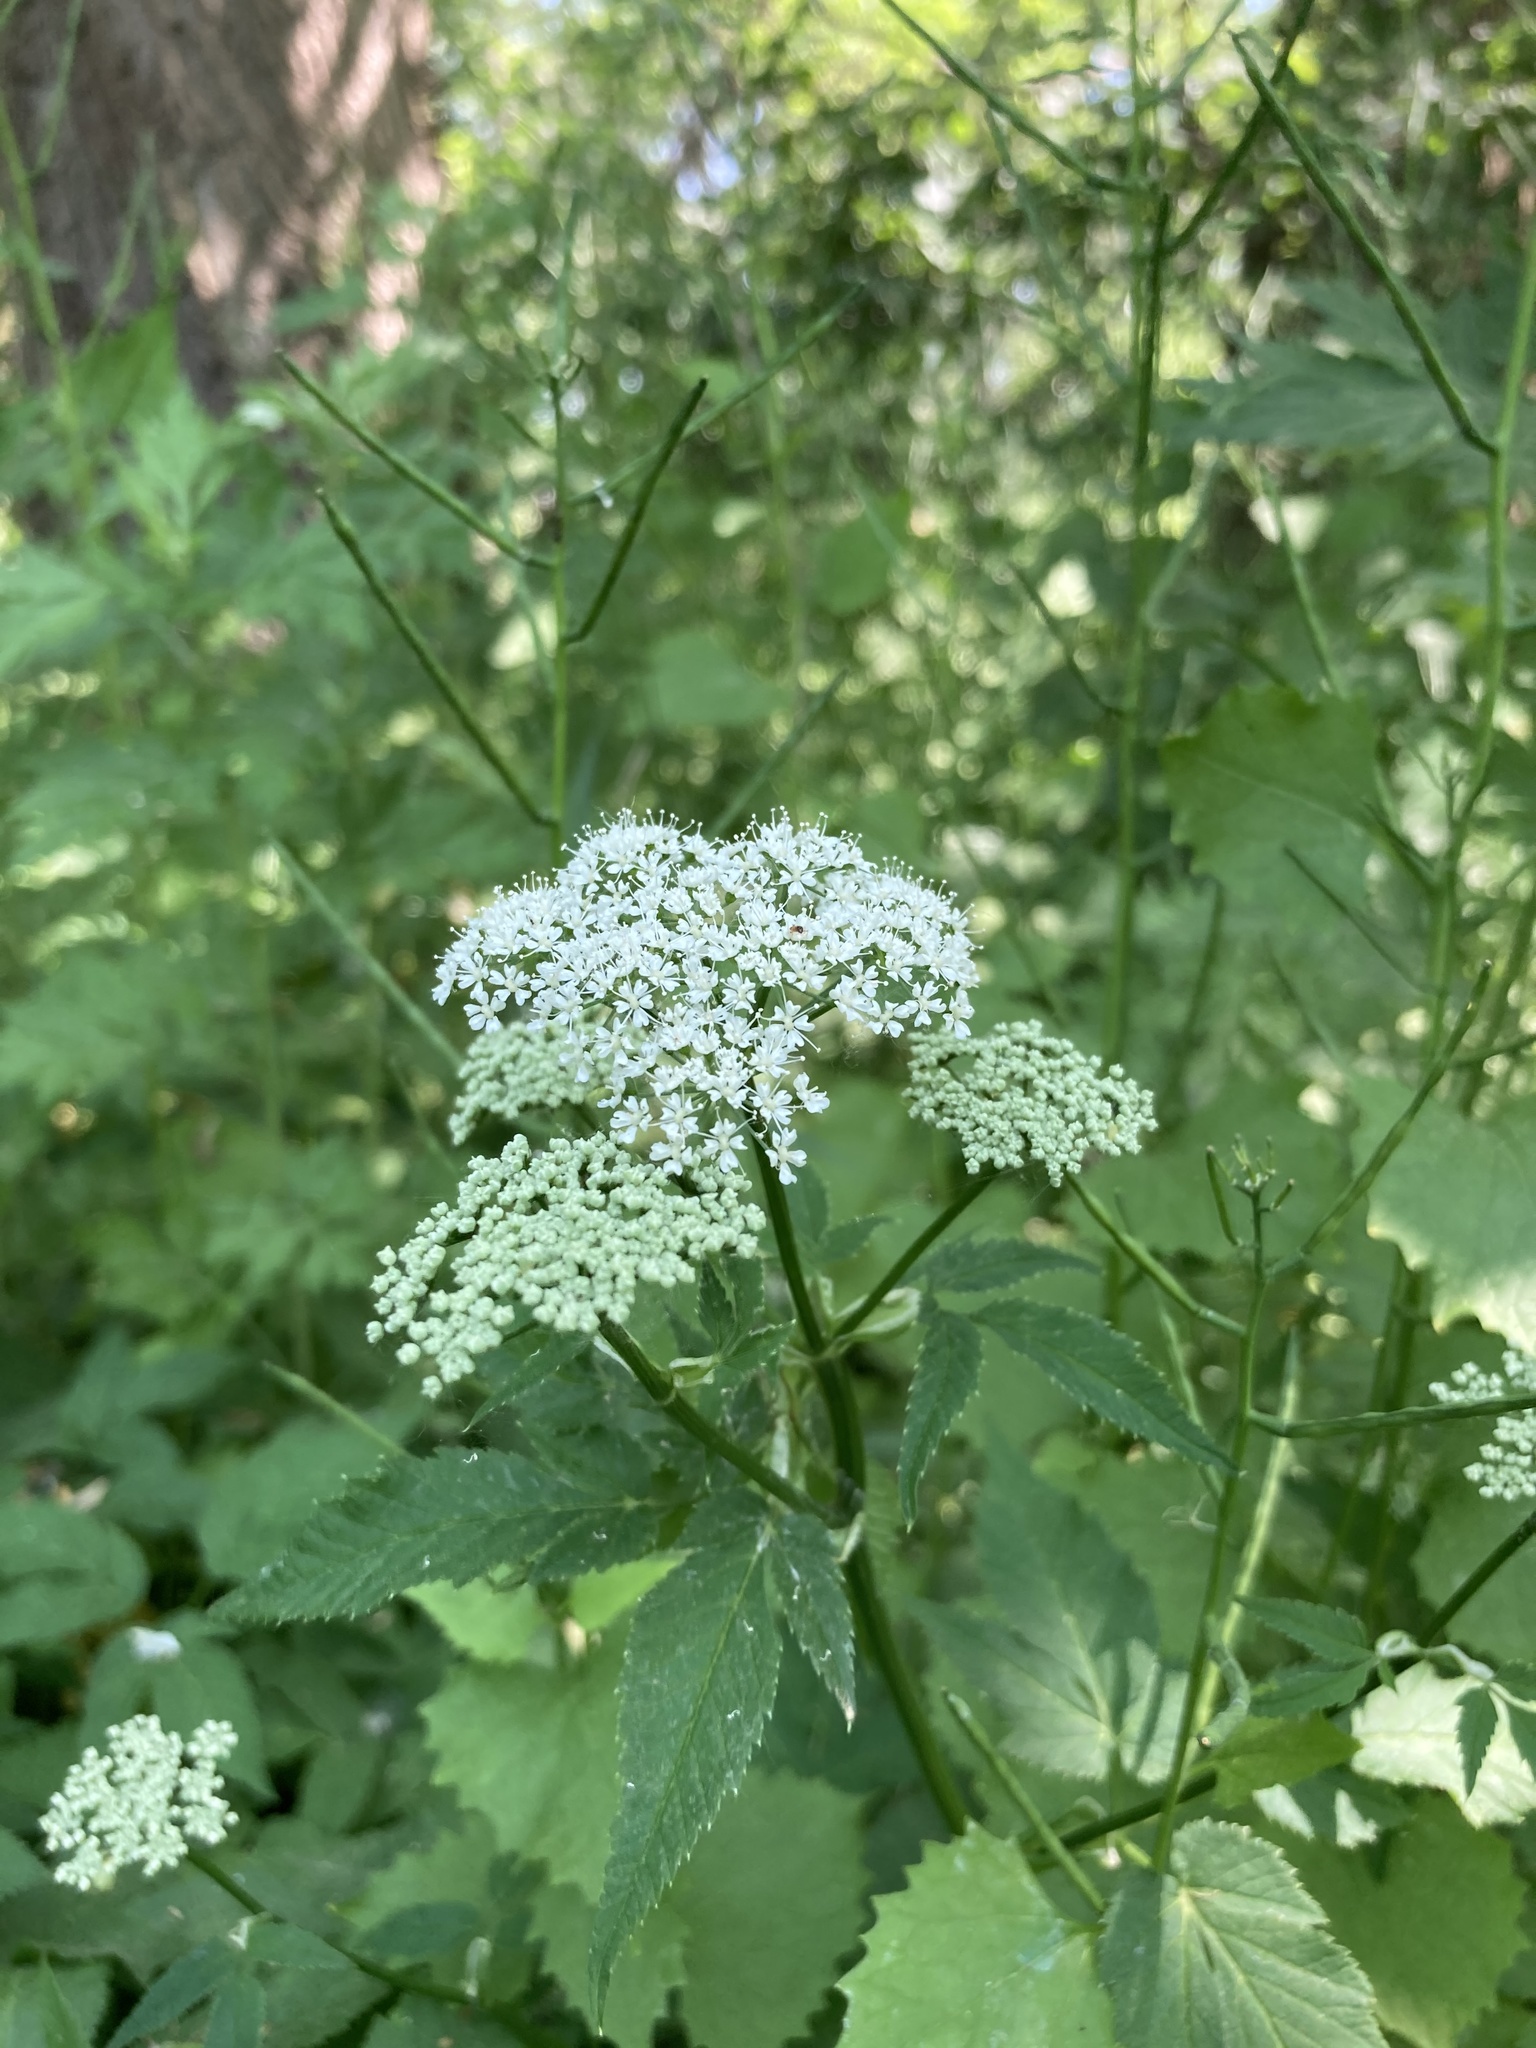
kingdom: Plantae
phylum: Tracheophyta
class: Magnoliopsida
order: Apiales
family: Apiaceae
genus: Aegopodium
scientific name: Aegopodium podagraria
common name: Ground-elder
